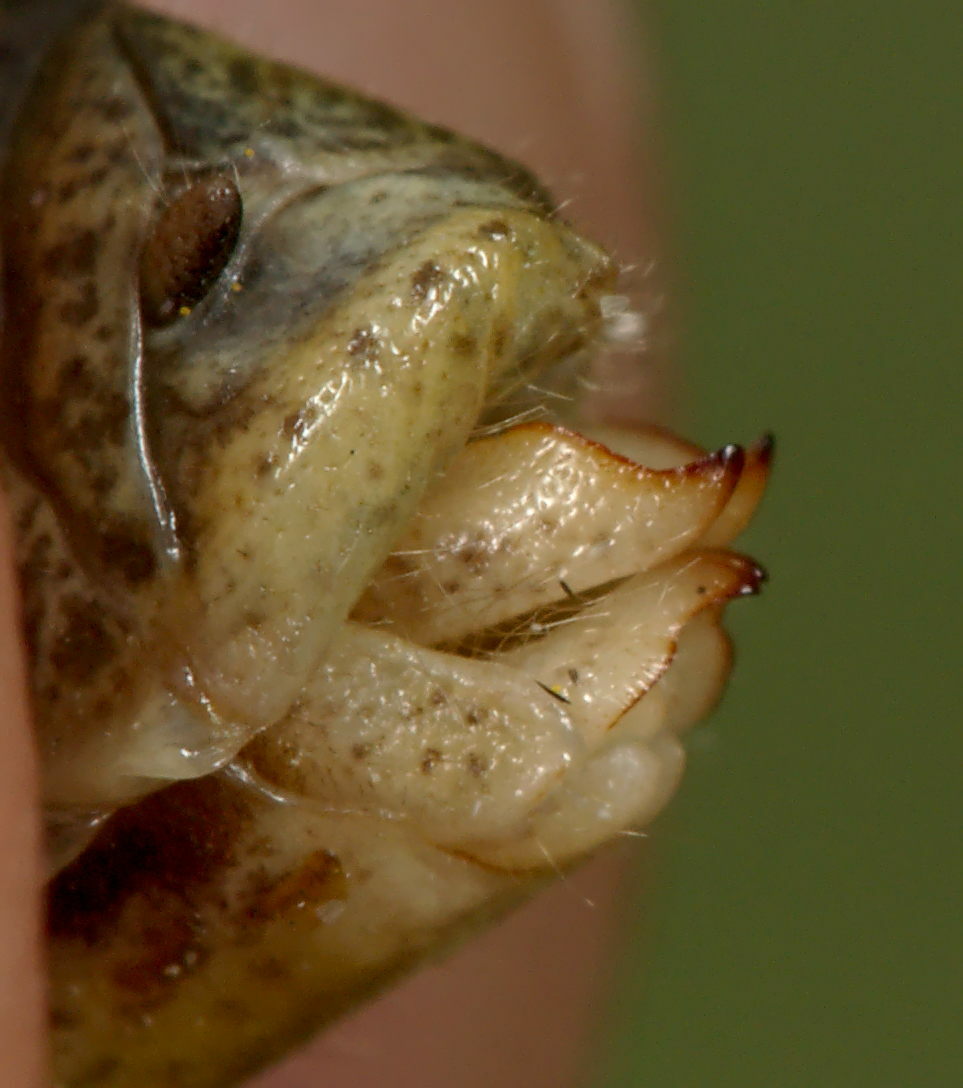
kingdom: Animalia
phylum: Arthropoda
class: Insecta
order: Orthoptera
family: Acrididae
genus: Chorthippus
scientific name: Chorthippus apricarius
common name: Upland field grasshopper
